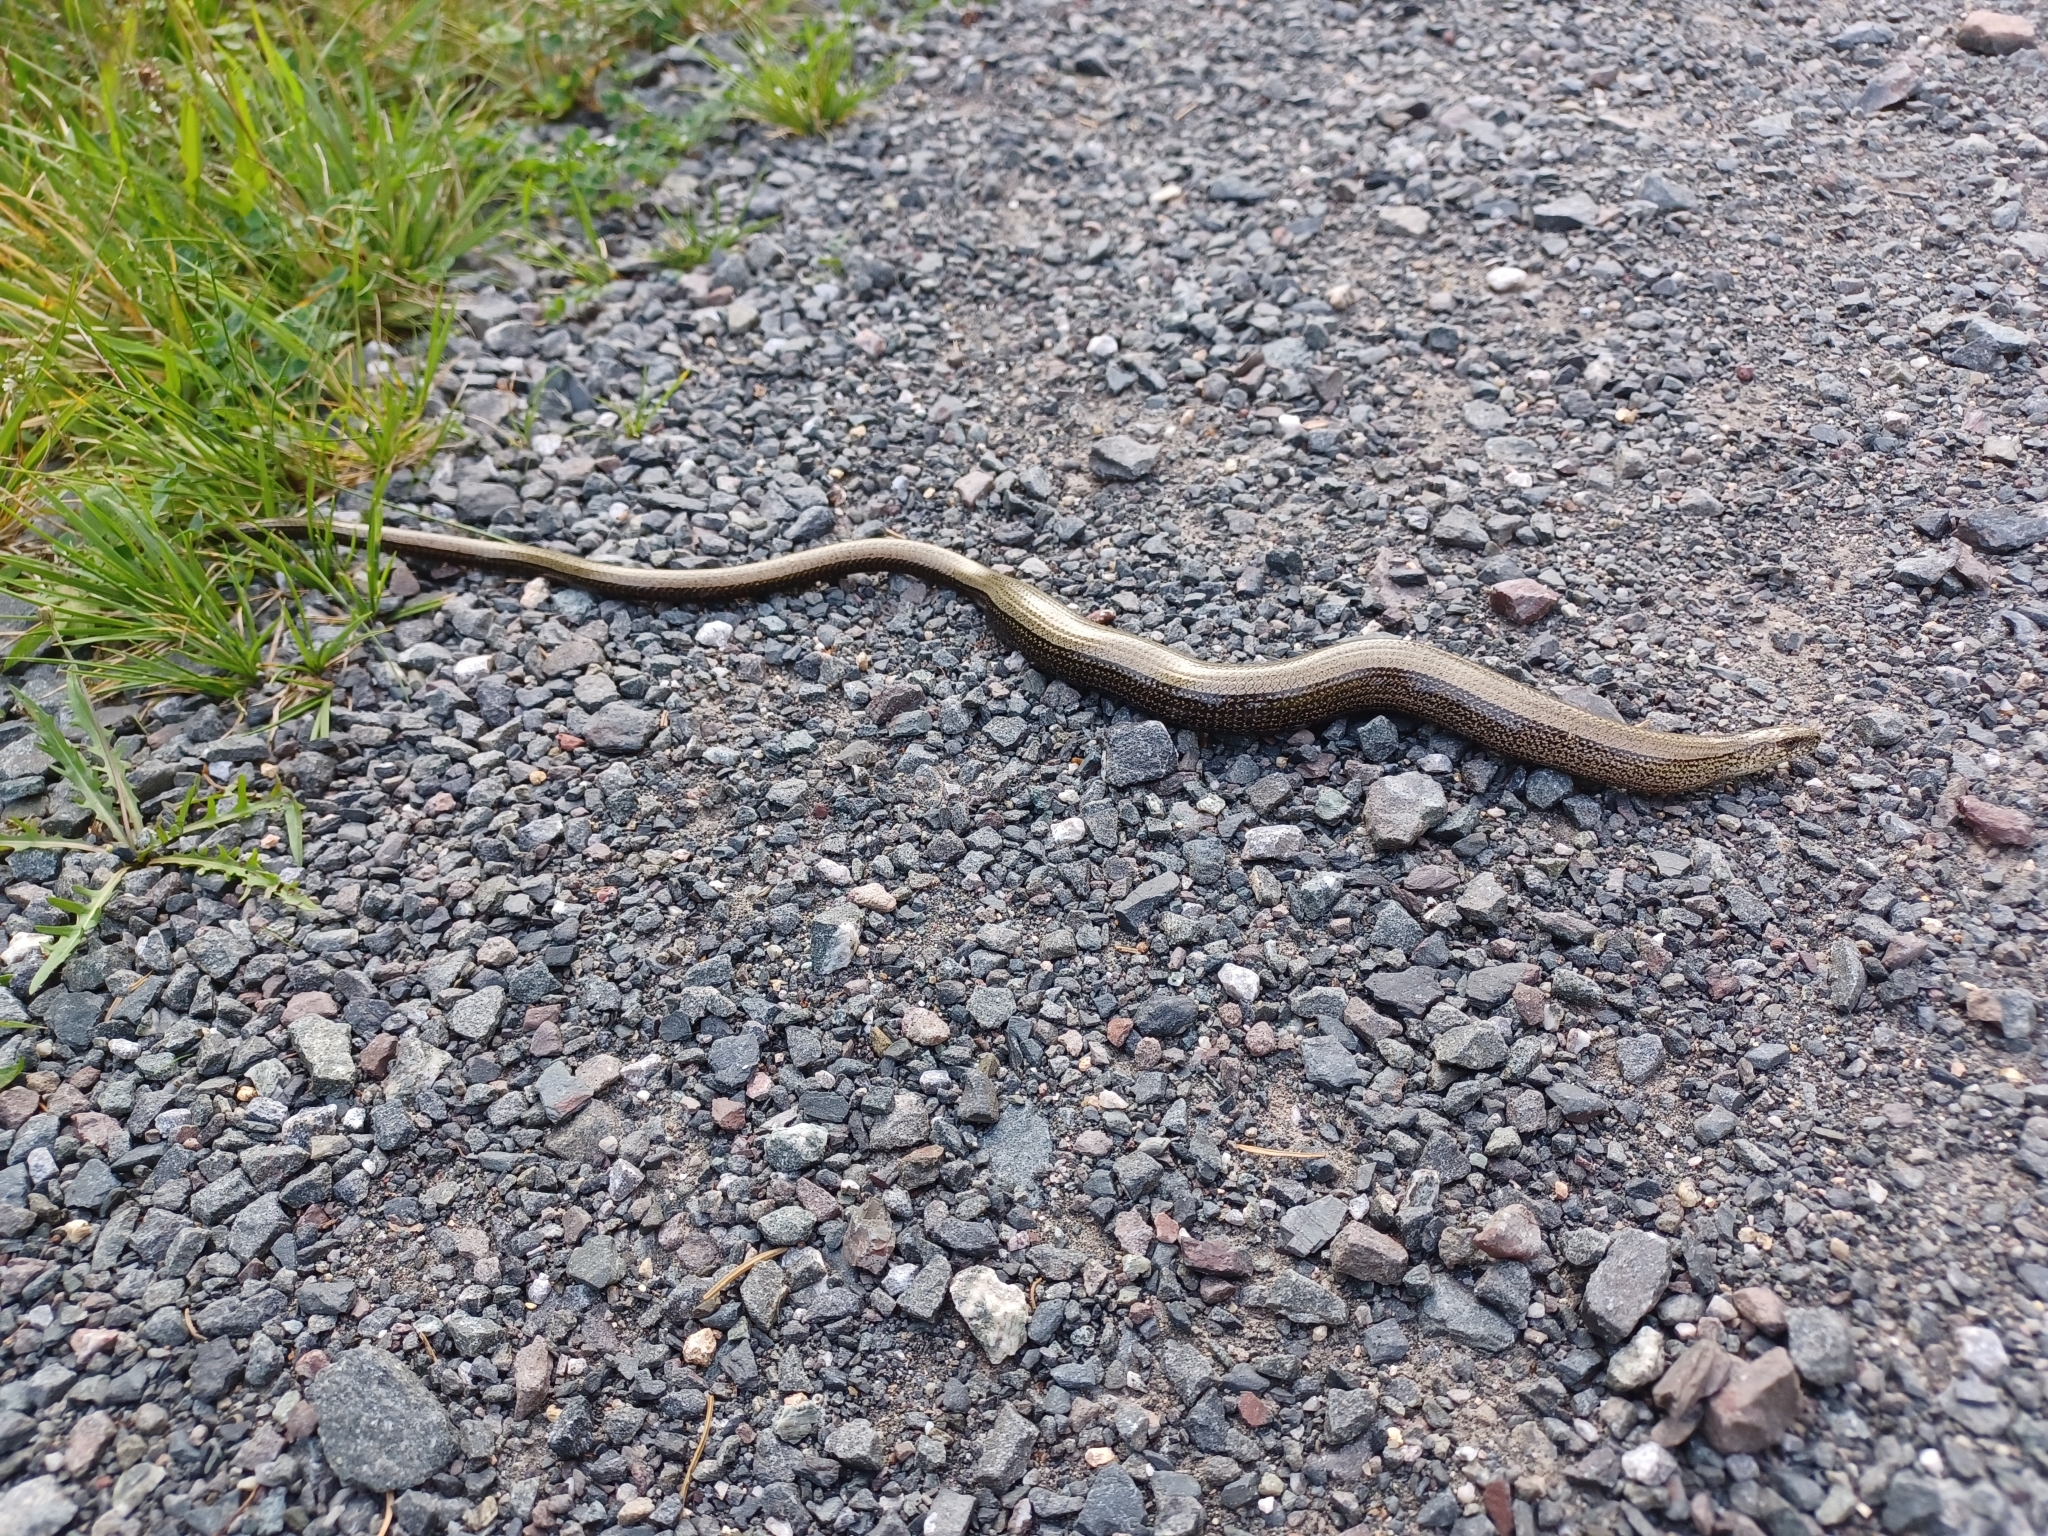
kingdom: Animalia
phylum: Chordata
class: Squamata
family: Anguidae
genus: Anguis
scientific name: Anguis fragilis
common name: Slow worm
